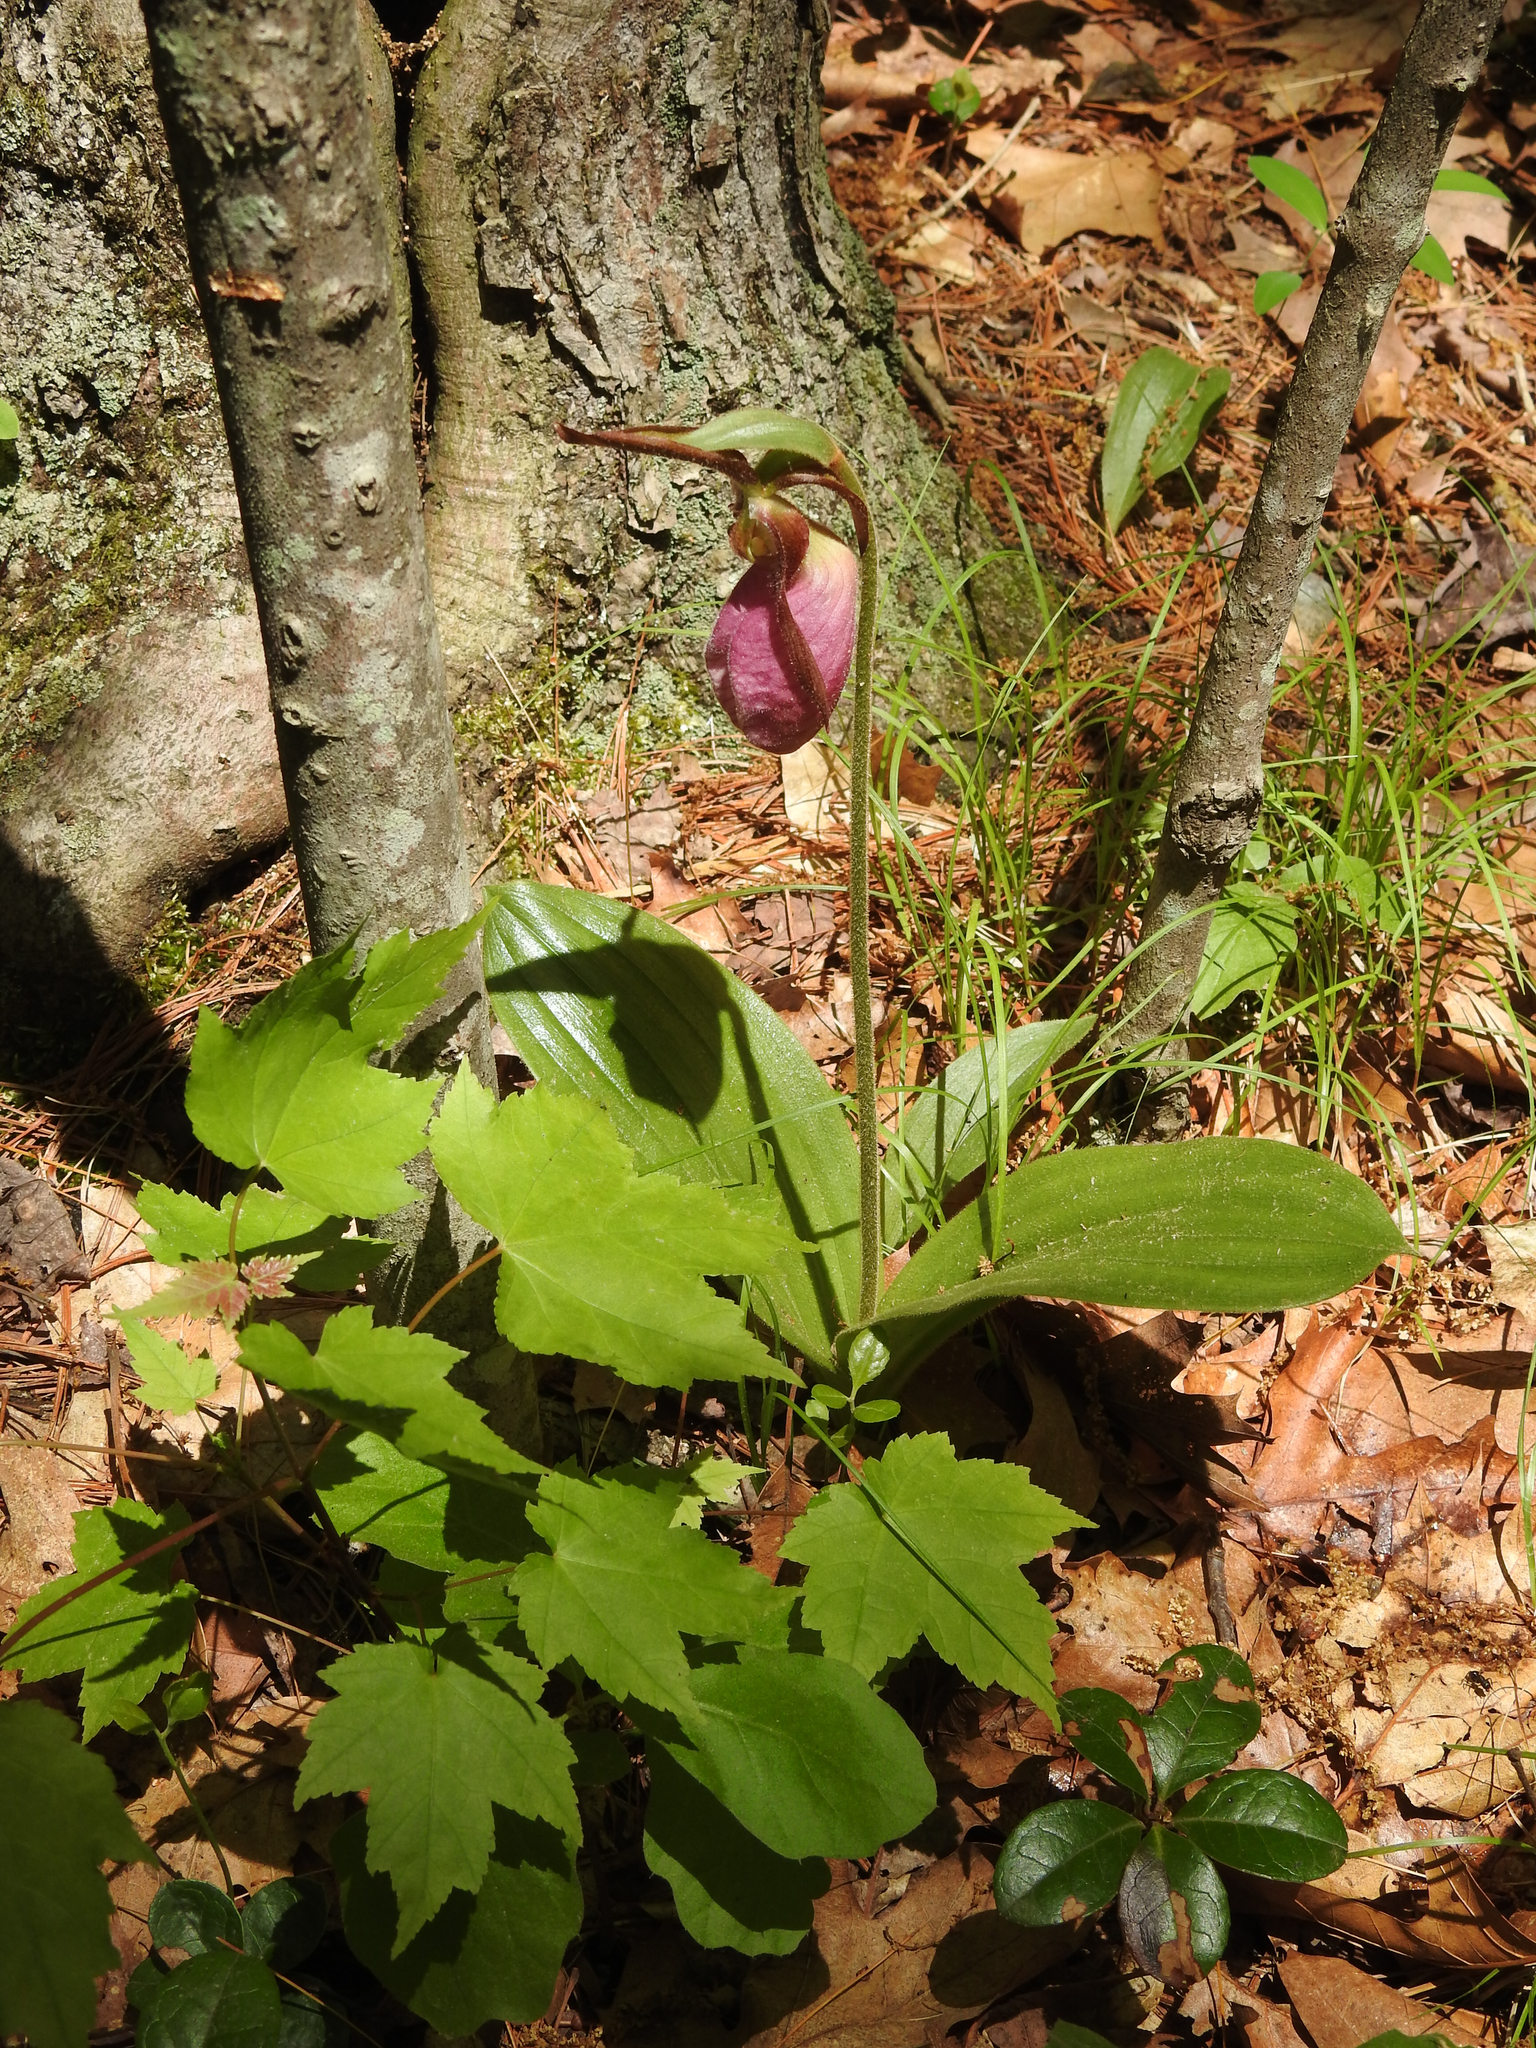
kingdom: Plantae
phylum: Tracheophyta
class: Liliopsida
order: Asparagales
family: Orchidaceae
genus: Cypripedium
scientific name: Cypripedium acaule
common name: Pink lady's-slipper
